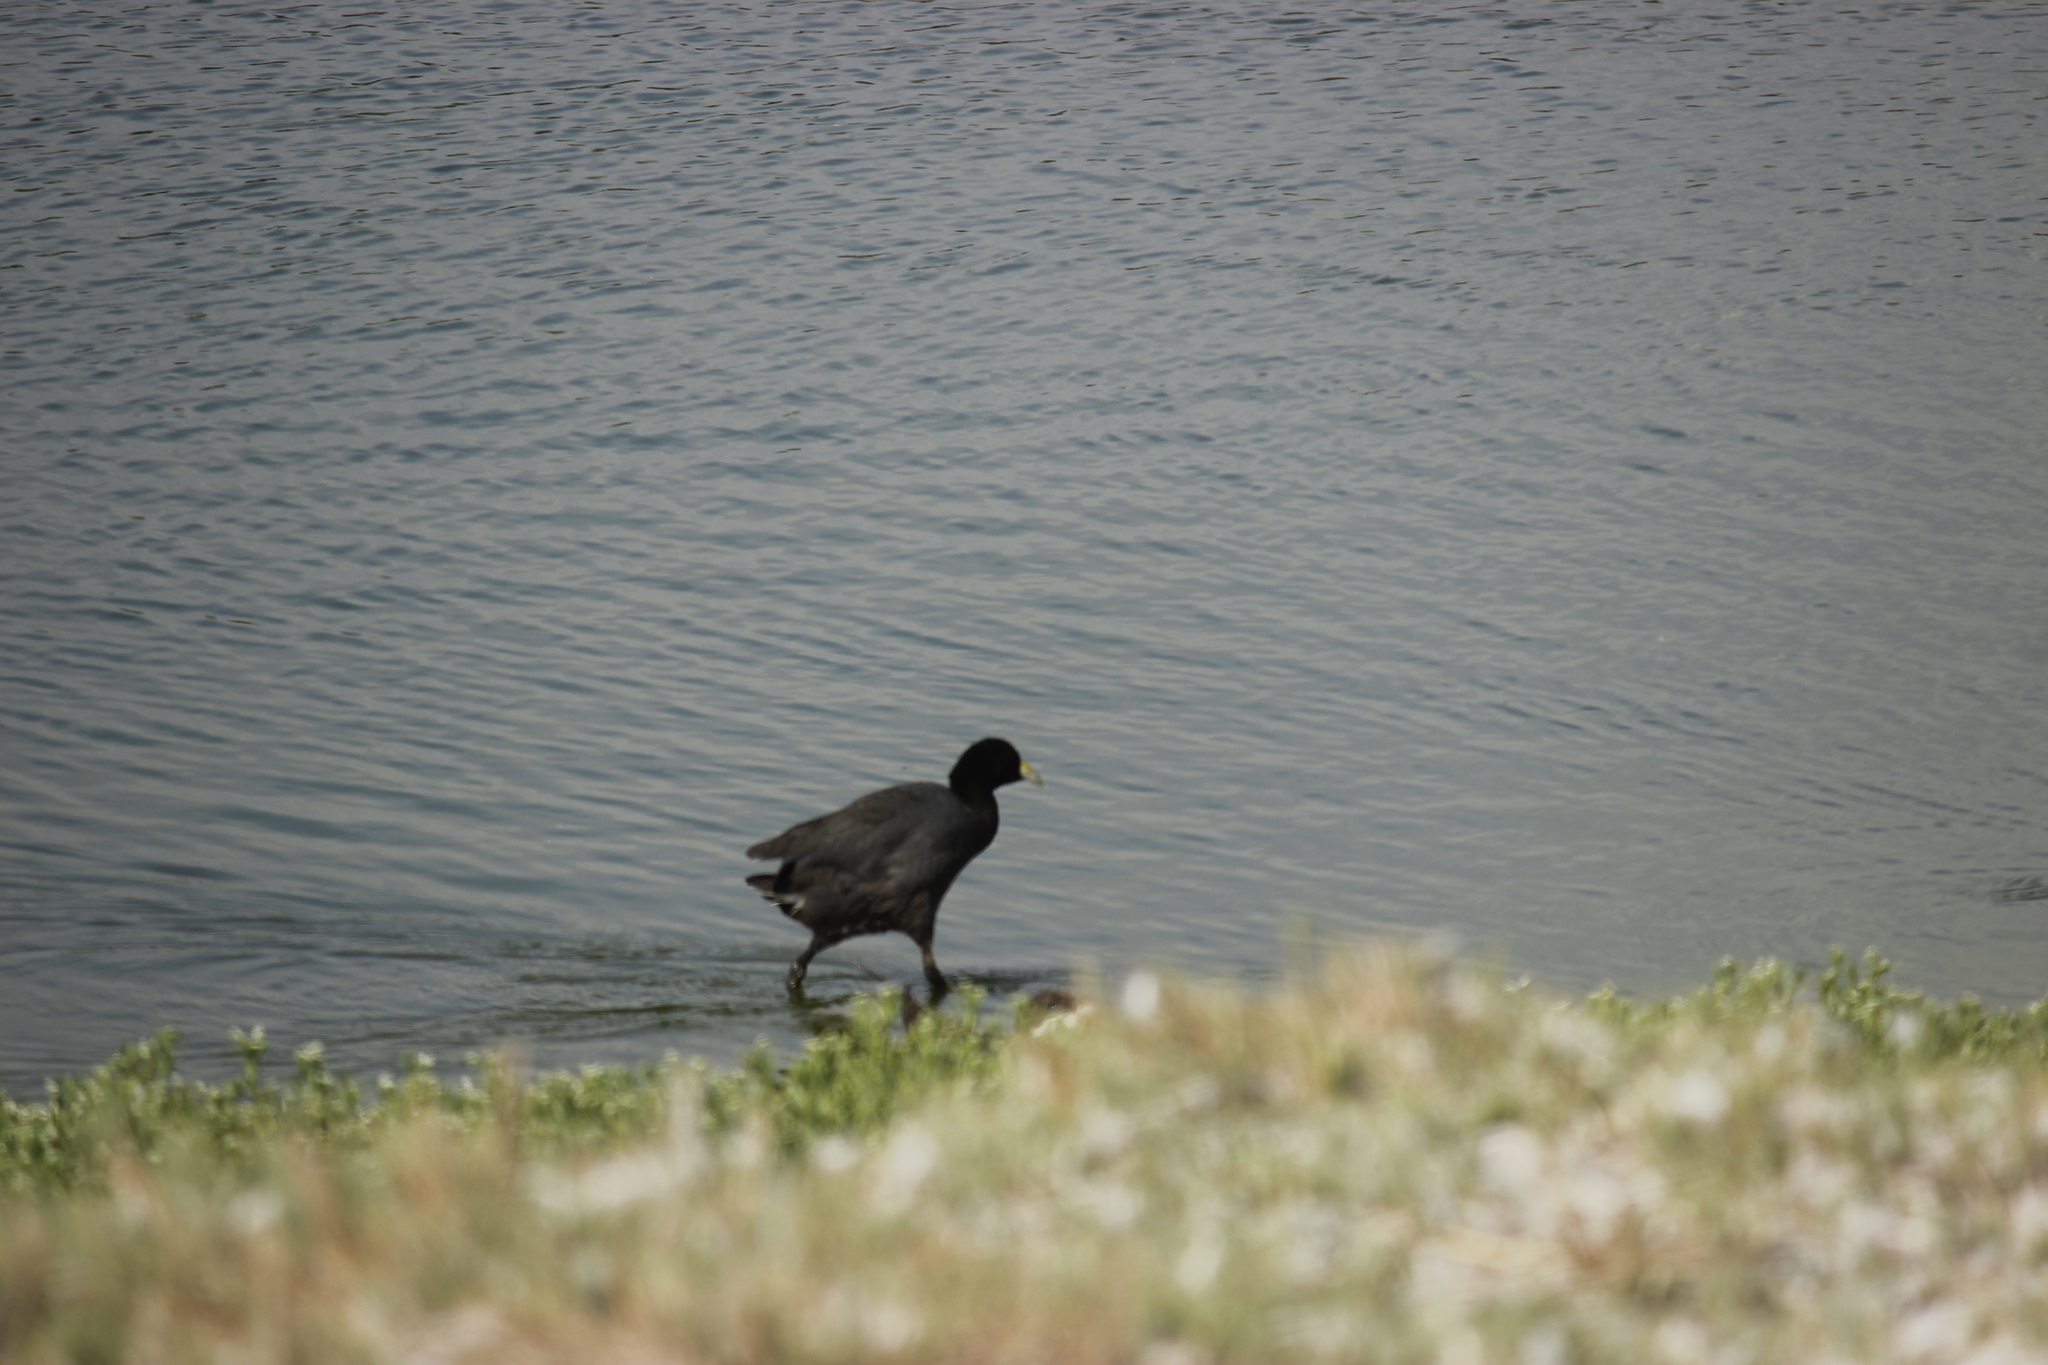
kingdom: Animalia
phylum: Chordata
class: Aves
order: Gruiformes
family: Rallidae
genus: Fulica
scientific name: Fulica ardesiaca
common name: Andean coot
